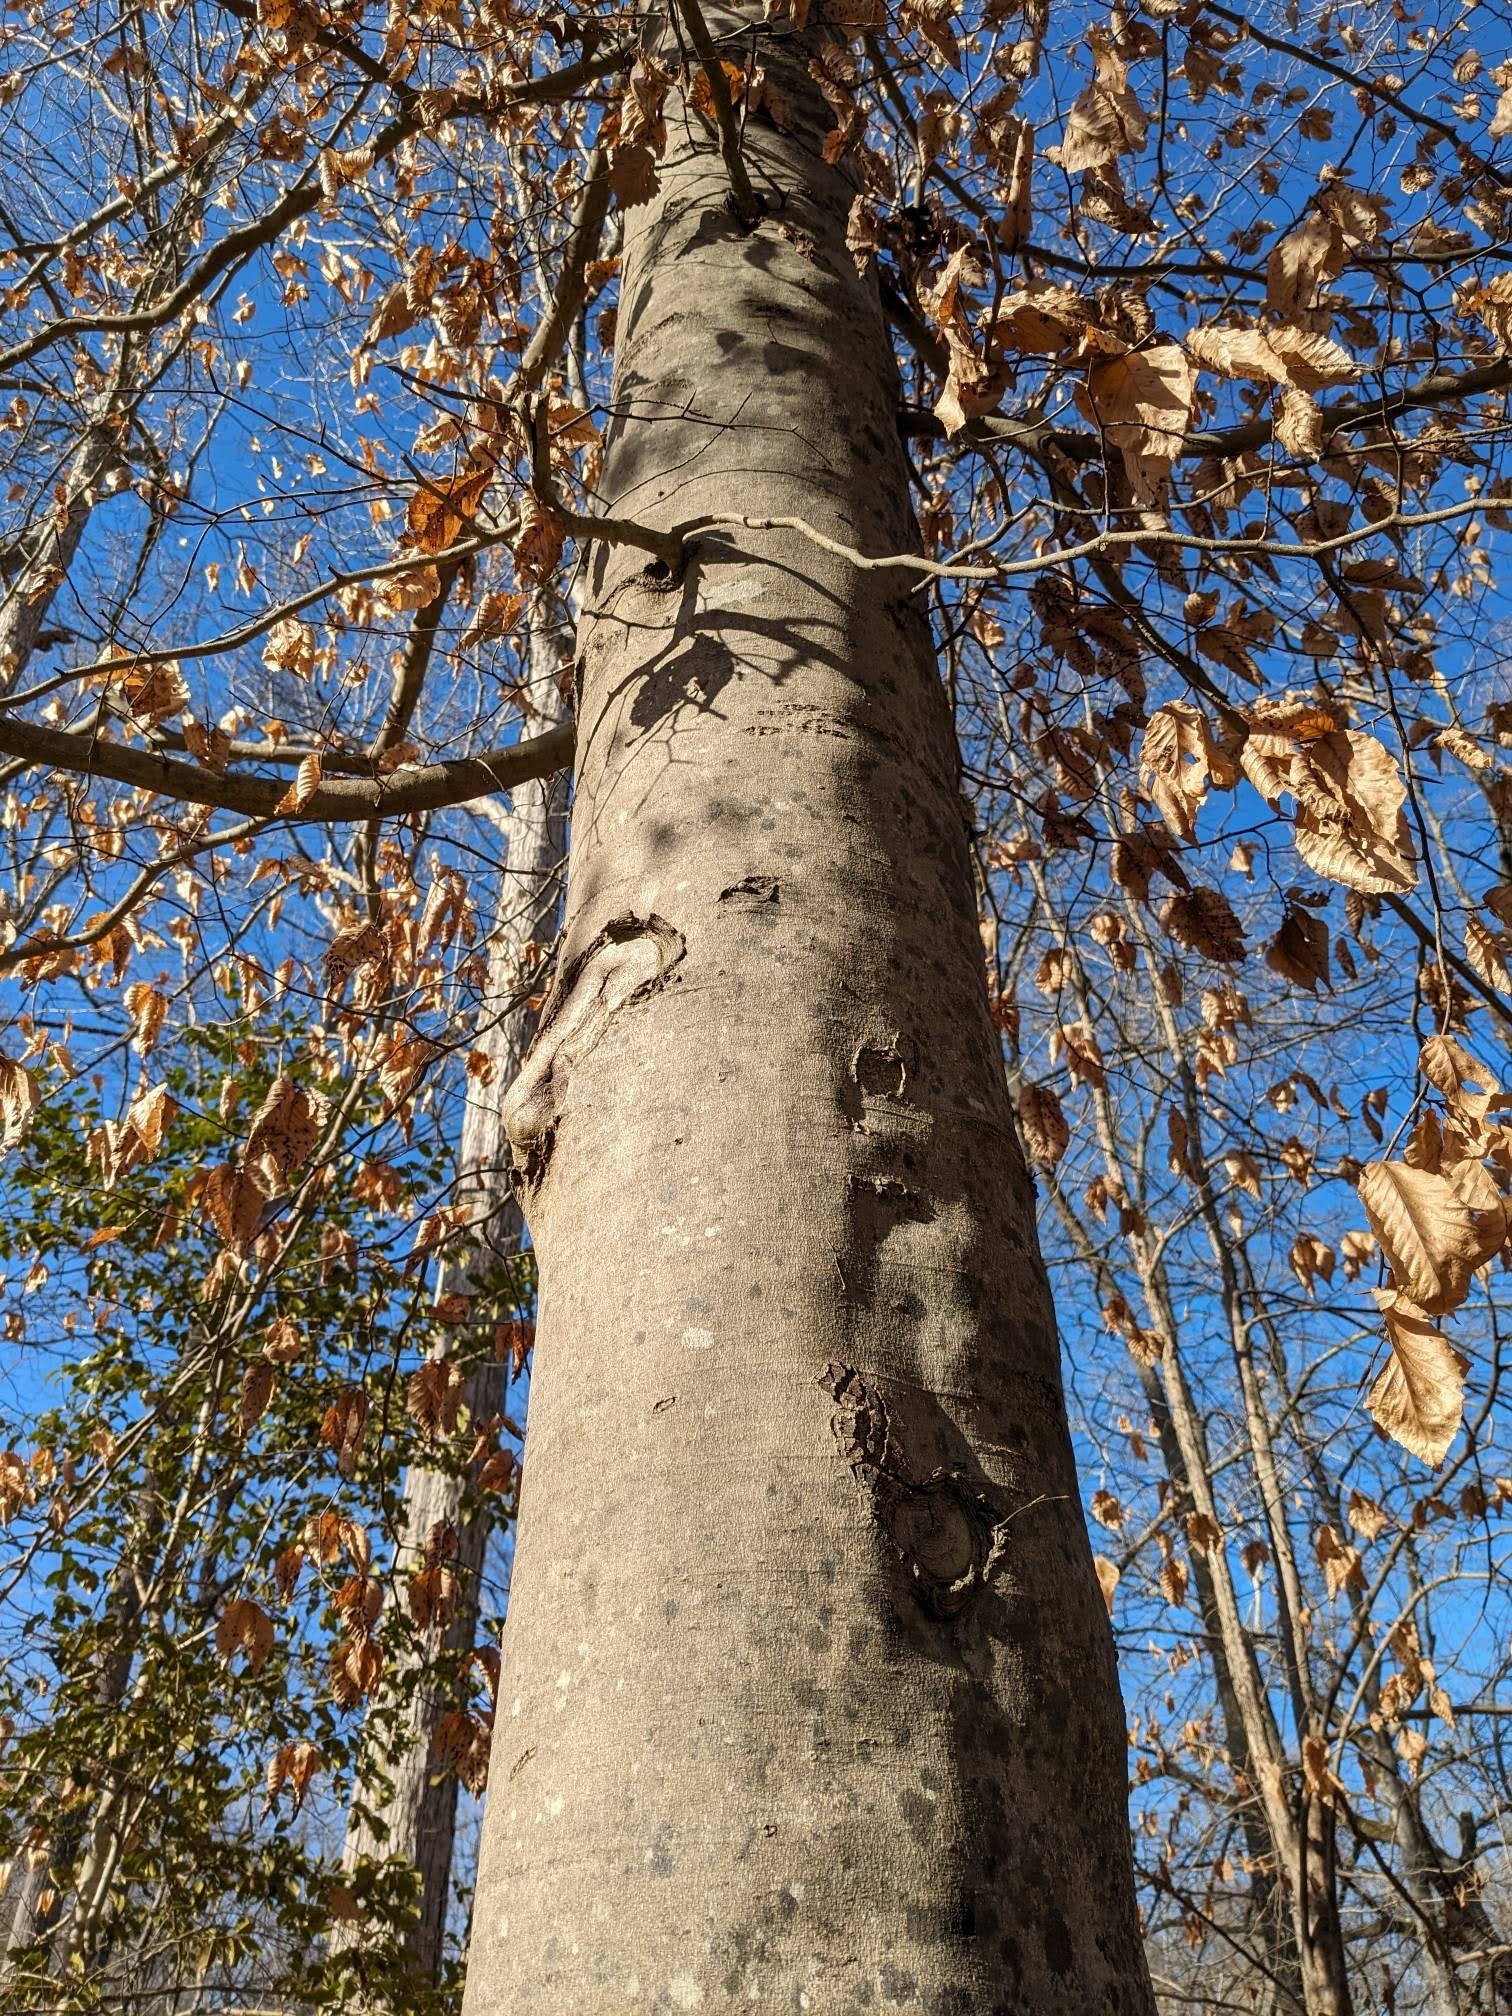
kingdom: Plantae
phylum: Tracheophyta
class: Magnoliopsida
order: Fagales
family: Fagaceae
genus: Fagus
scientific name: Fagus grandifolia
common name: American beech
